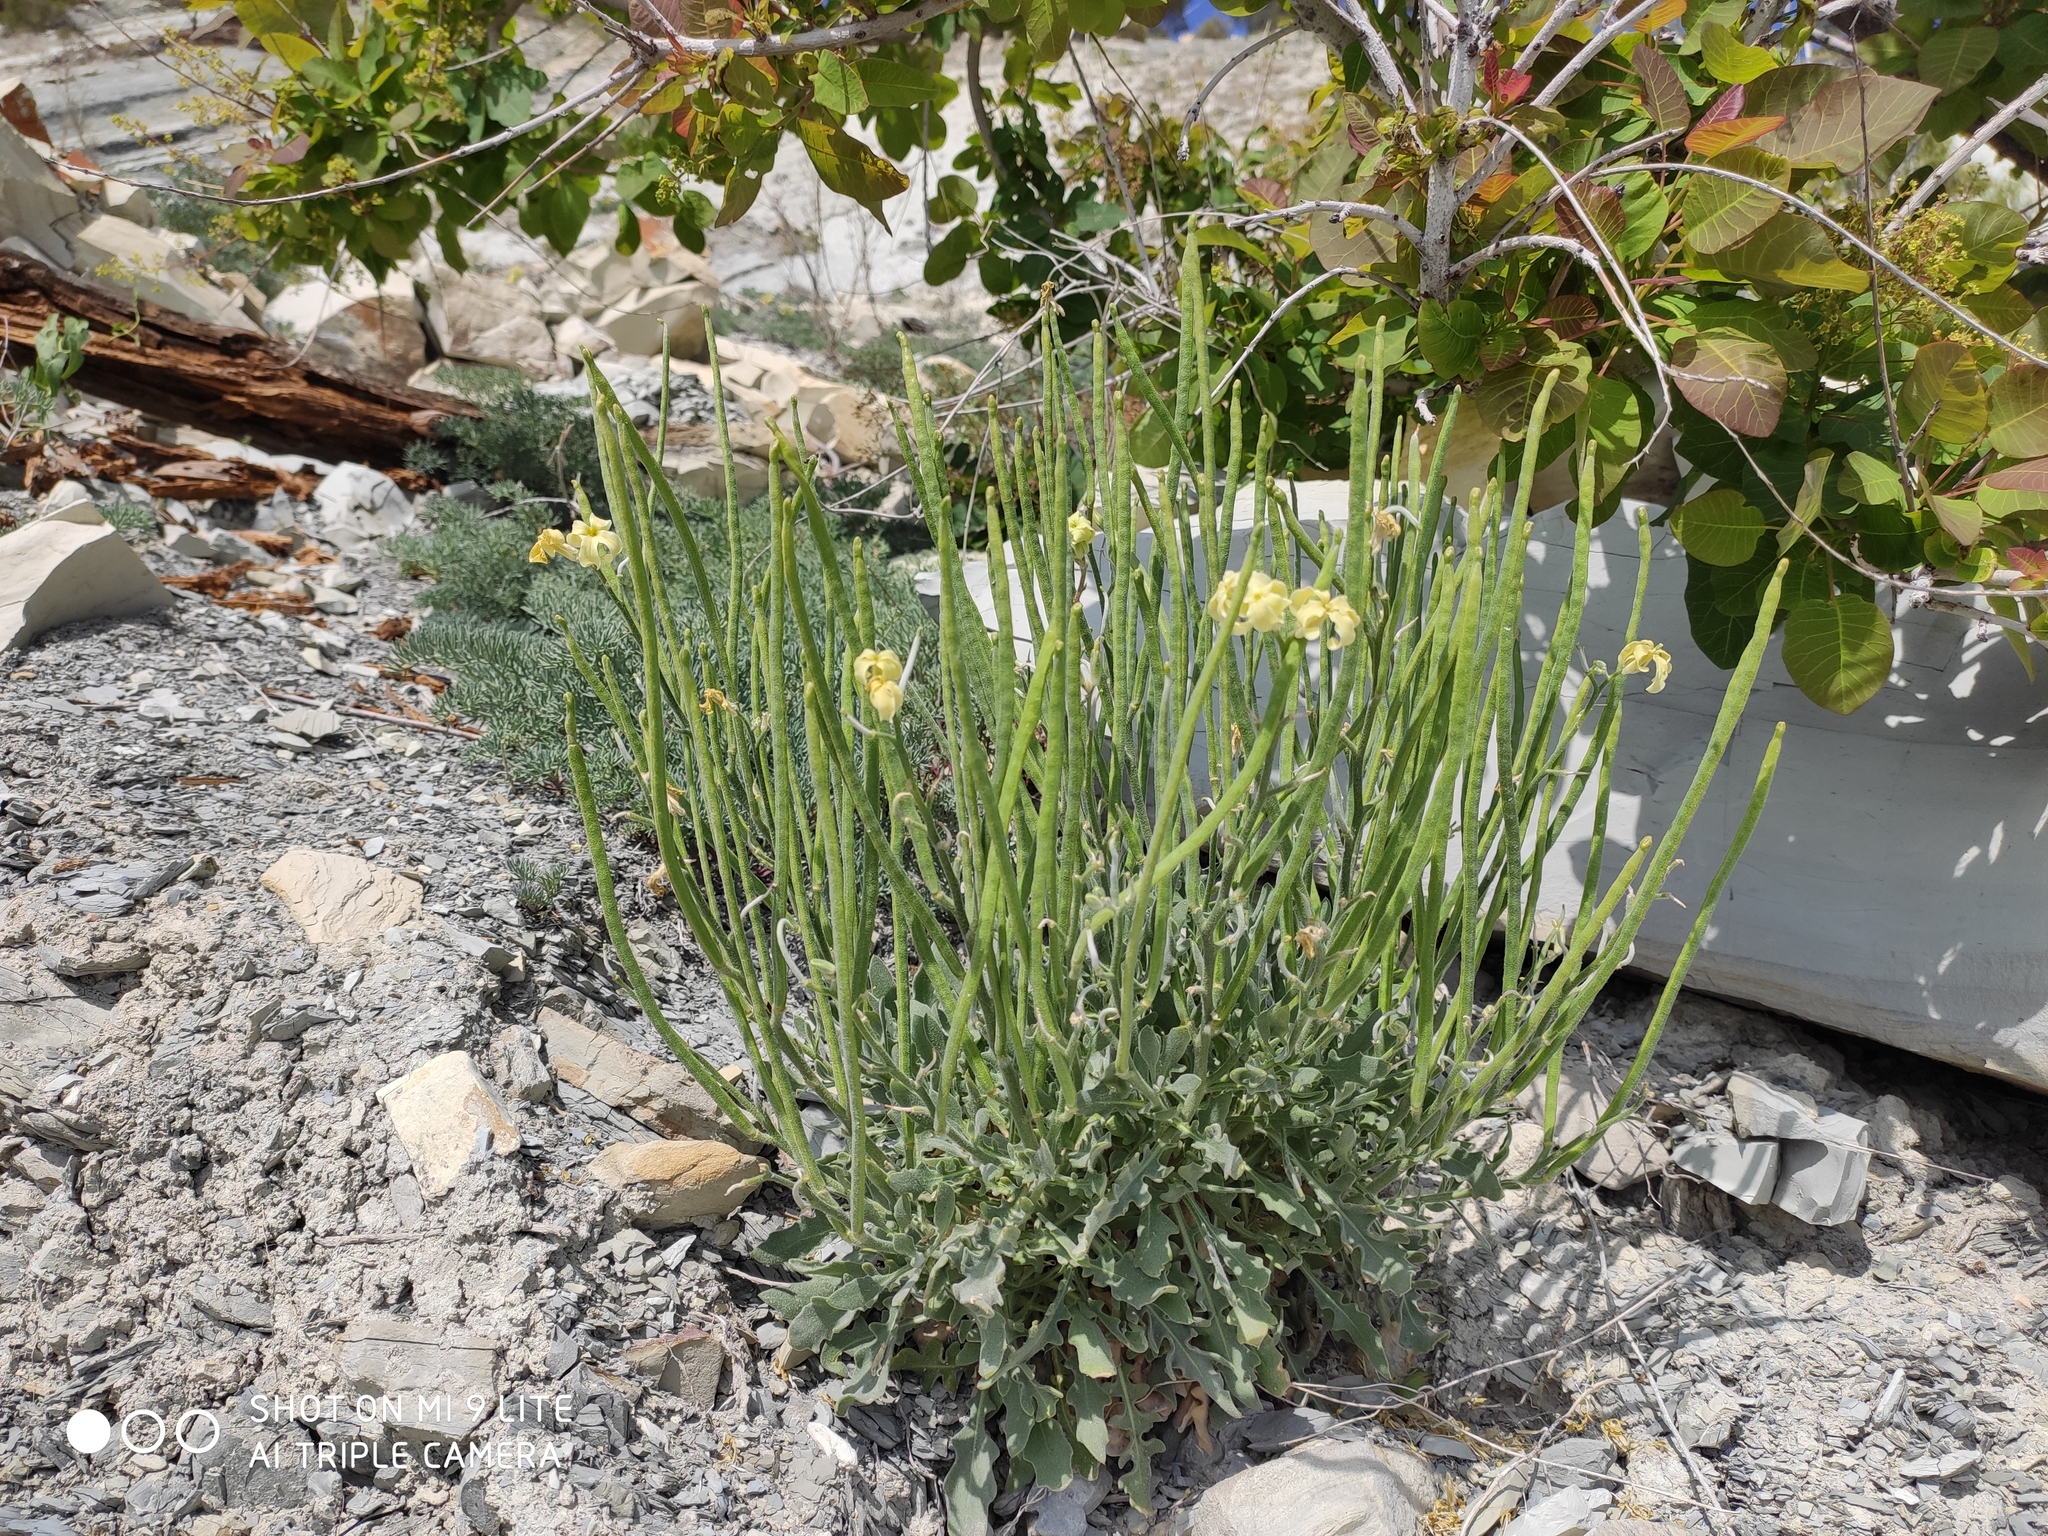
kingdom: Plantae
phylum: Tracheophyta
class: Magnoliopsida
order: Brassicales
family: Brassicaceae
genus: Matthiola
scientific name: Matthiola odoratissima
